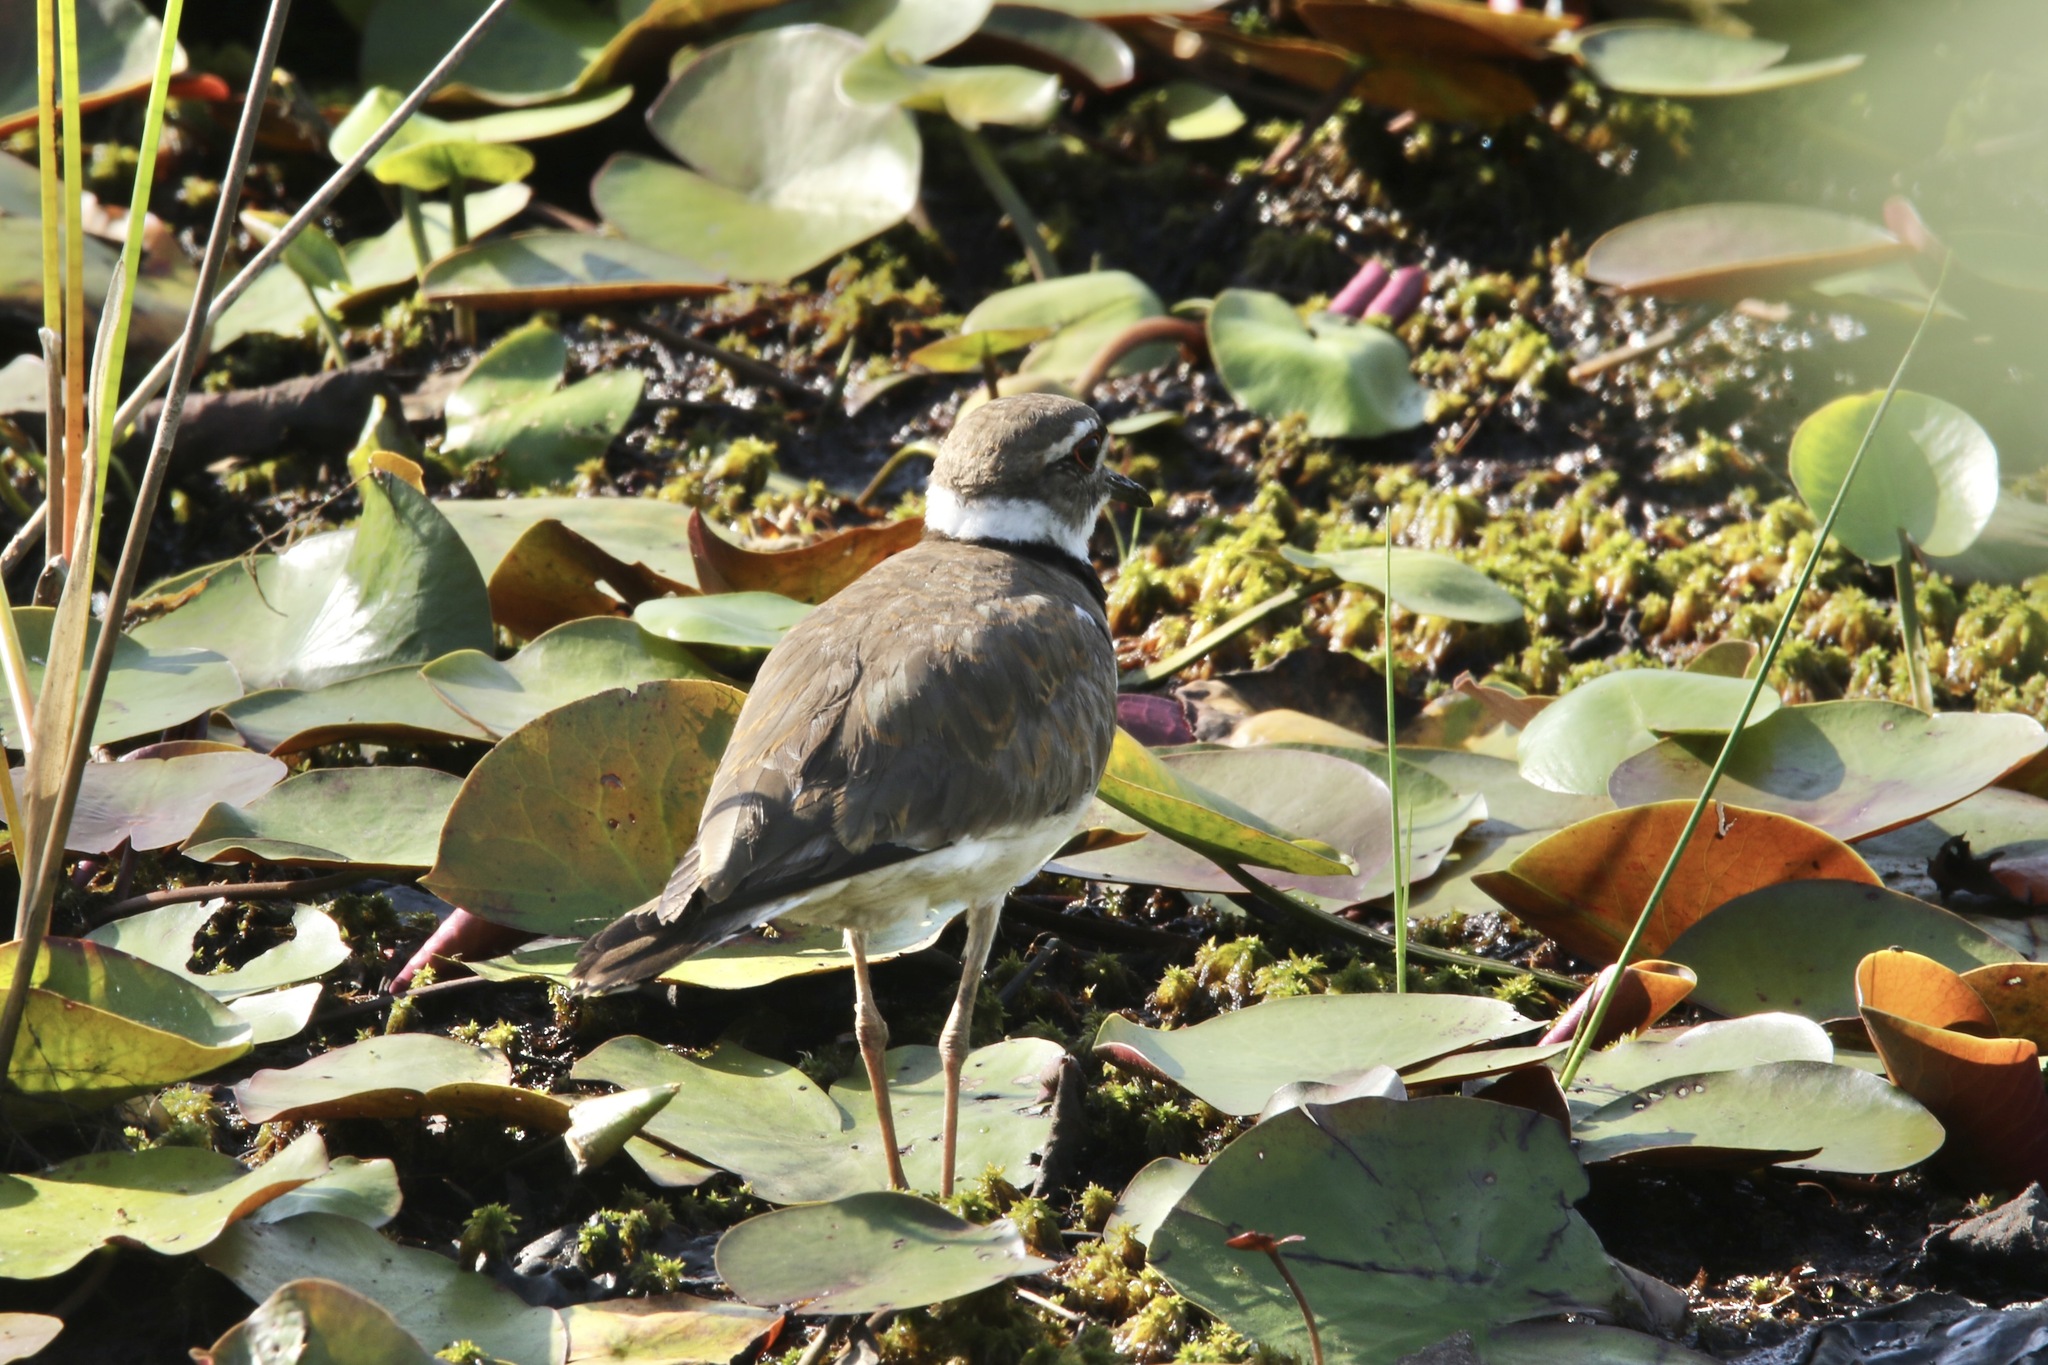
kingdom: Animalia
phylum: Chordata
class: Aves
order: Charadriiformes
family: Charadriidae
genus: Charadrius
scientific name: Charadrius vociferus
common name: Killdeer
